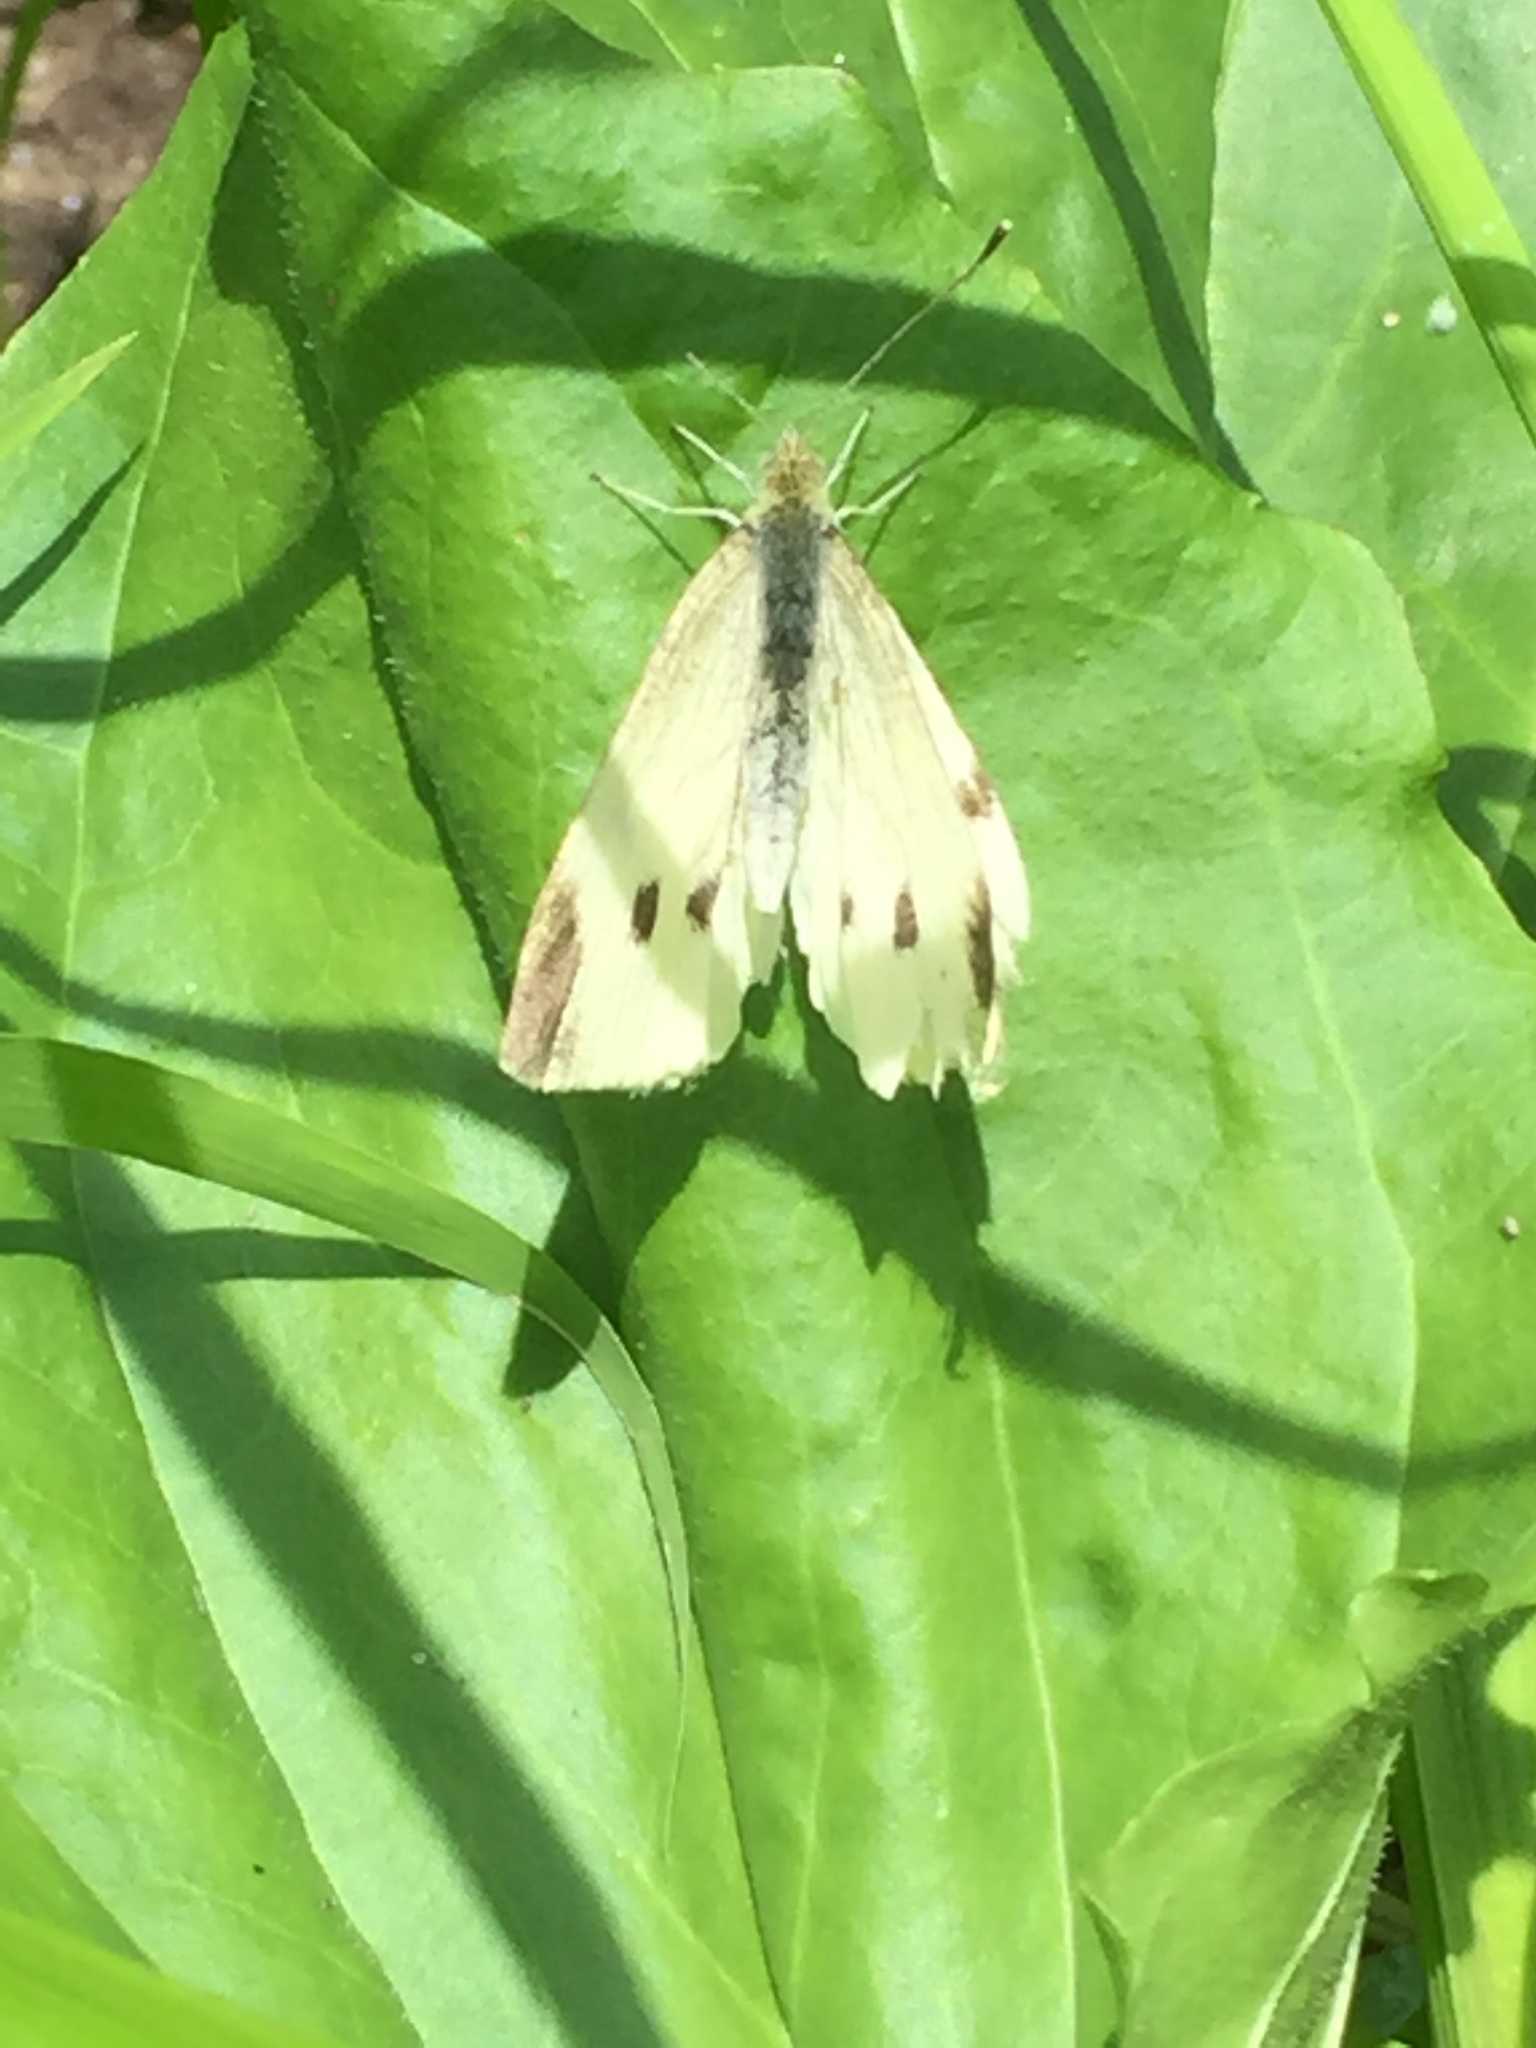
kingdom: Animalia
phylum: Arthropoda
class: Insecta
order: Lepidoptera
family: Pieridae
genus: Pieris
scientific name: Pieris rapae
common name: Small white
